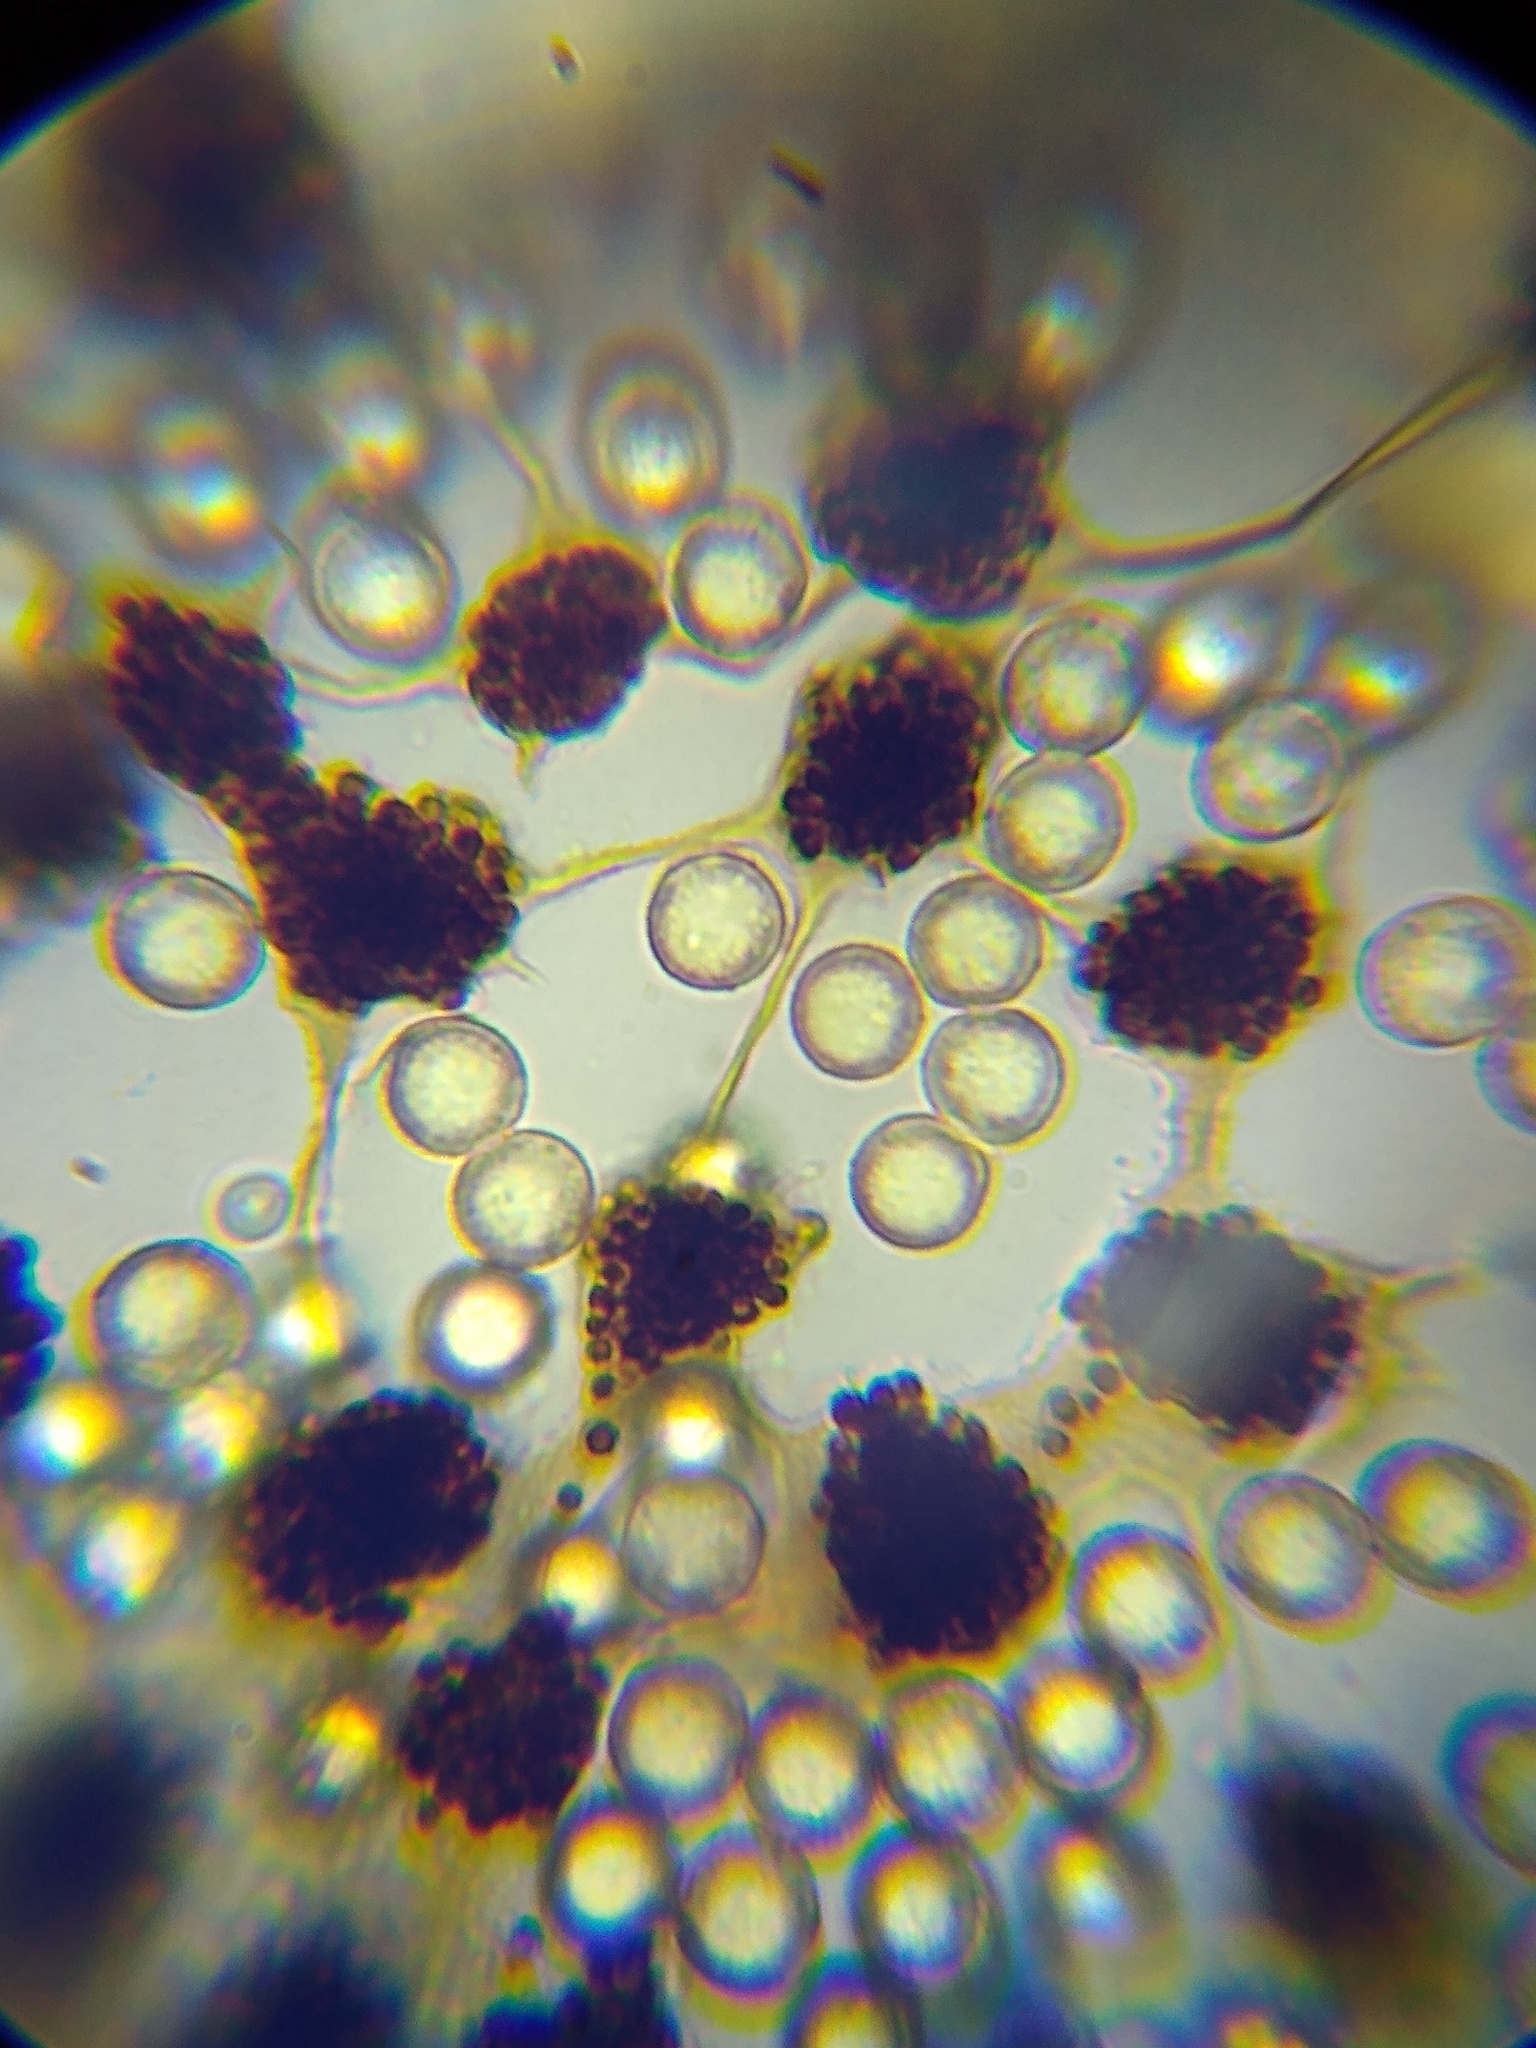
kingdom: Protozoa
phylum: Mycetozoa
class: Myxomycetes
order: Cribrariales
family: Cribrariaceae
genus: Cribraria
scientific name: Cribraria microcarpa
